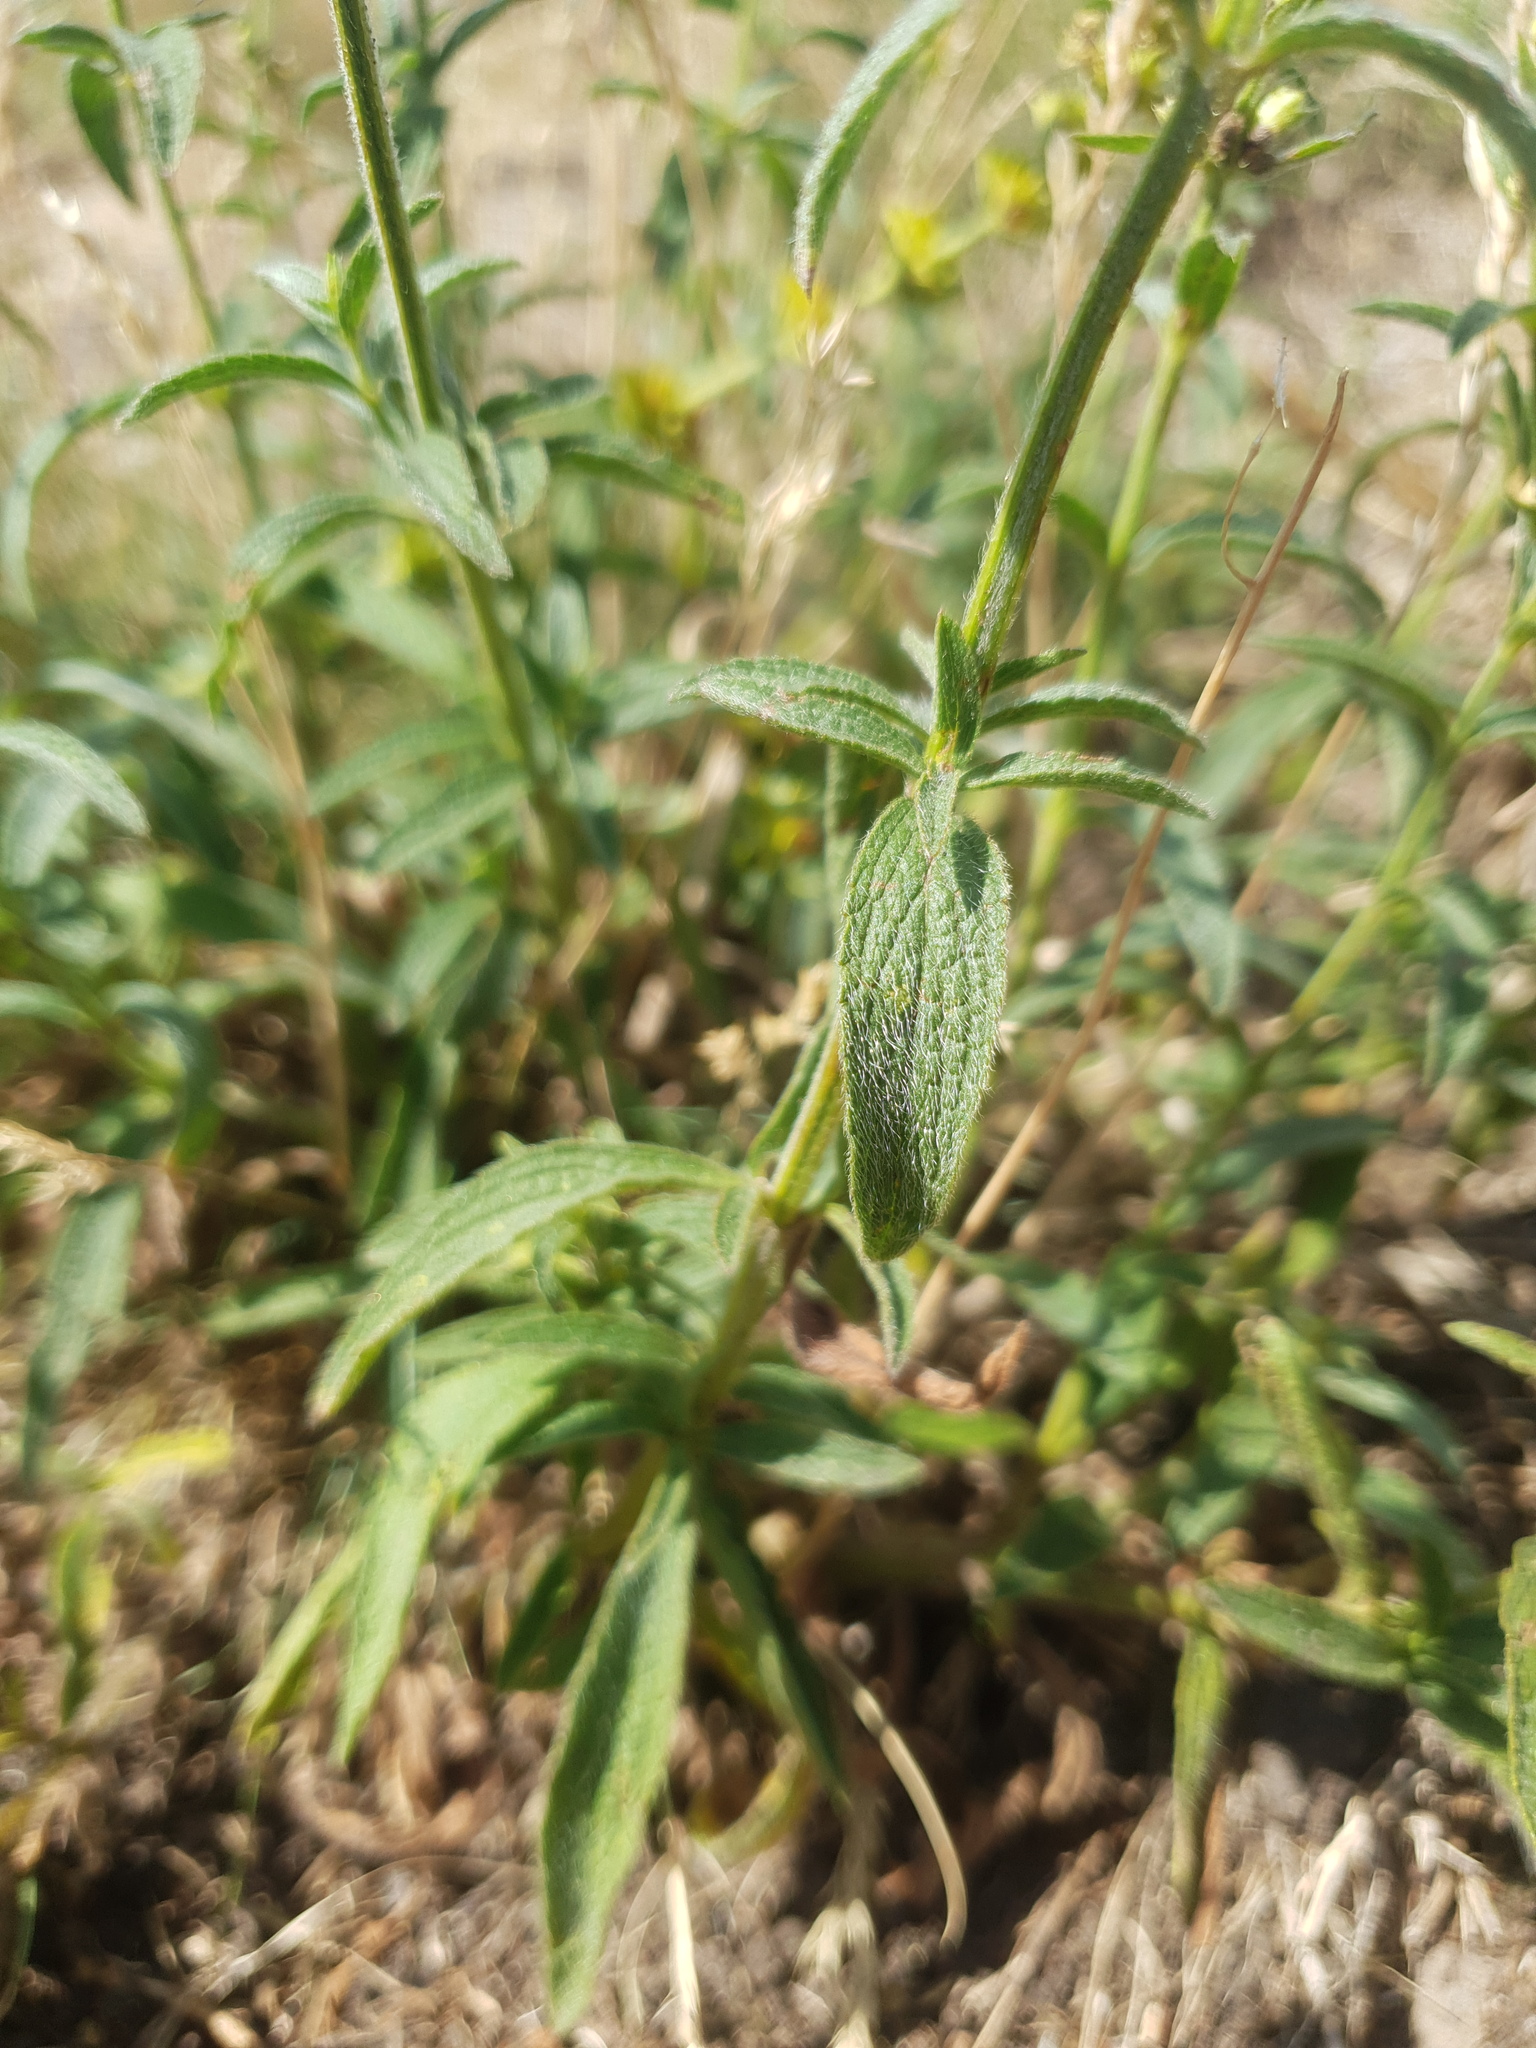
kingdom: Plantae
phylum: Tracheophyta
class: Magnoliopsida
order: Lamiales
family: Lamiaceae
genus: Stachys
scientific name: Stachys recta
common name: Perennial yellow-woundwort
